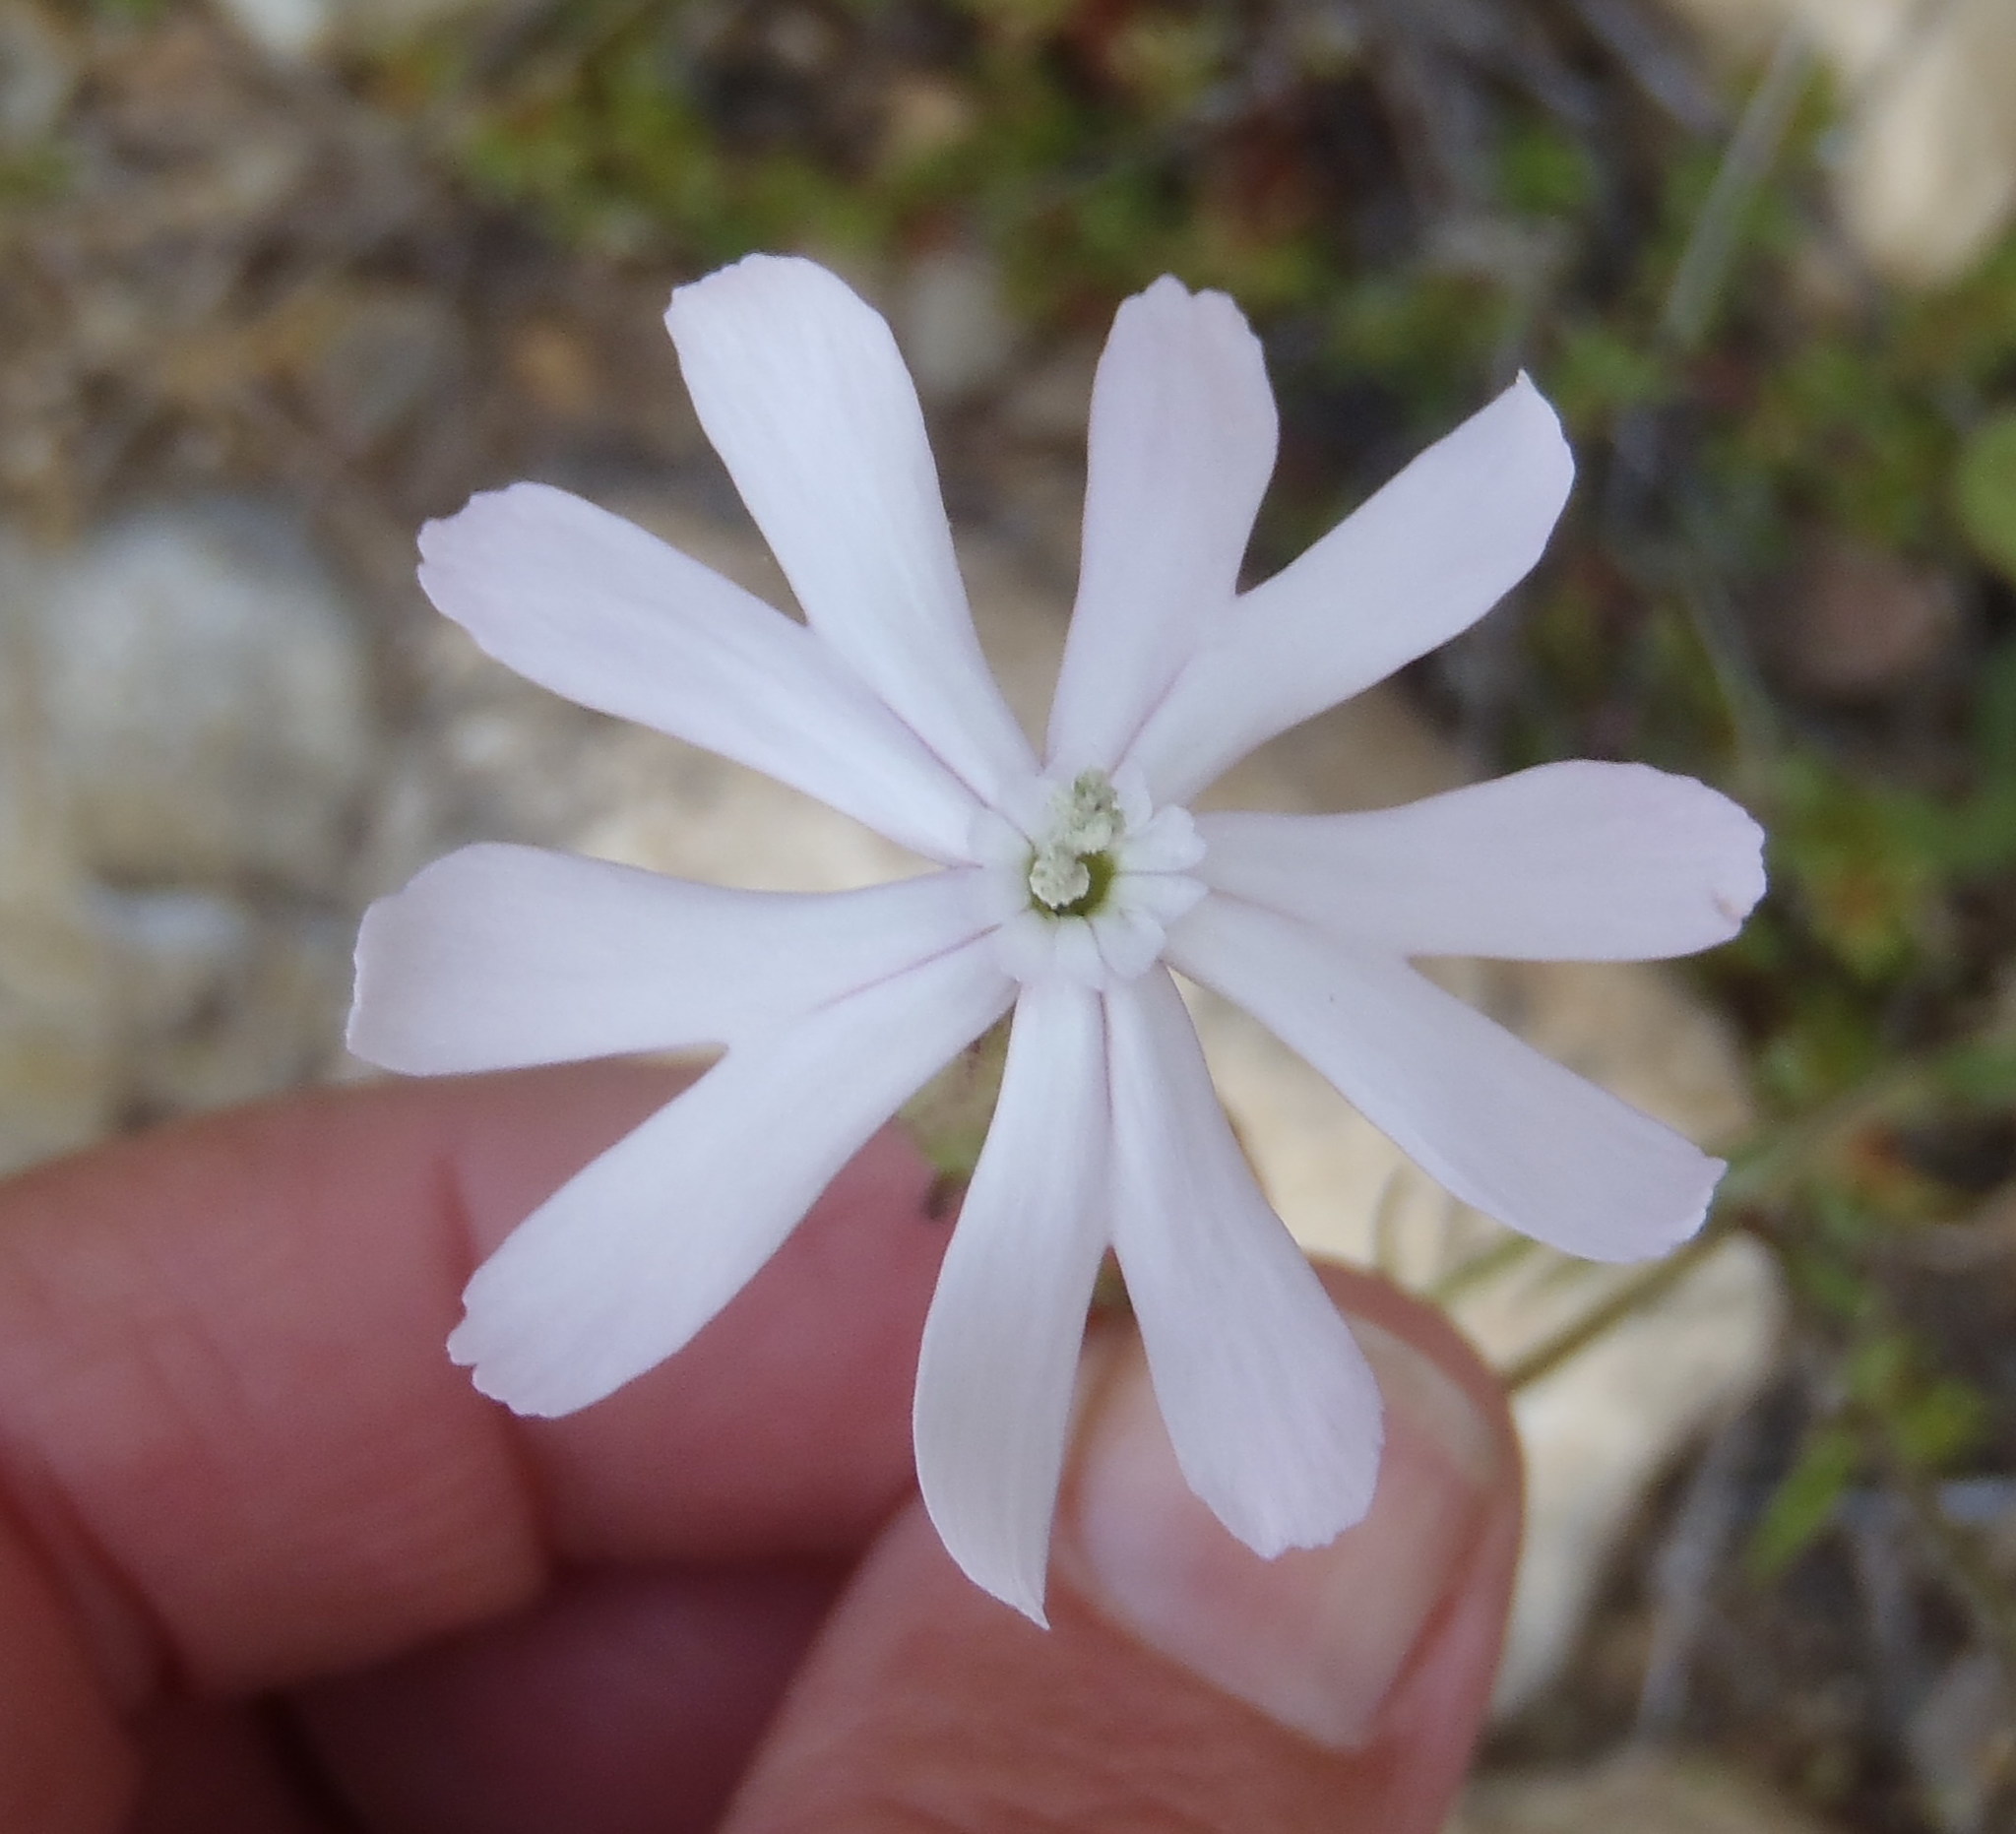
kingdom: Plantae
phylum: Tracheophyta
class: Magnoliopsida
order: Caryophyllales
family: Caryophyllaceae
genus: Silene
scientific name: Silene undulata
